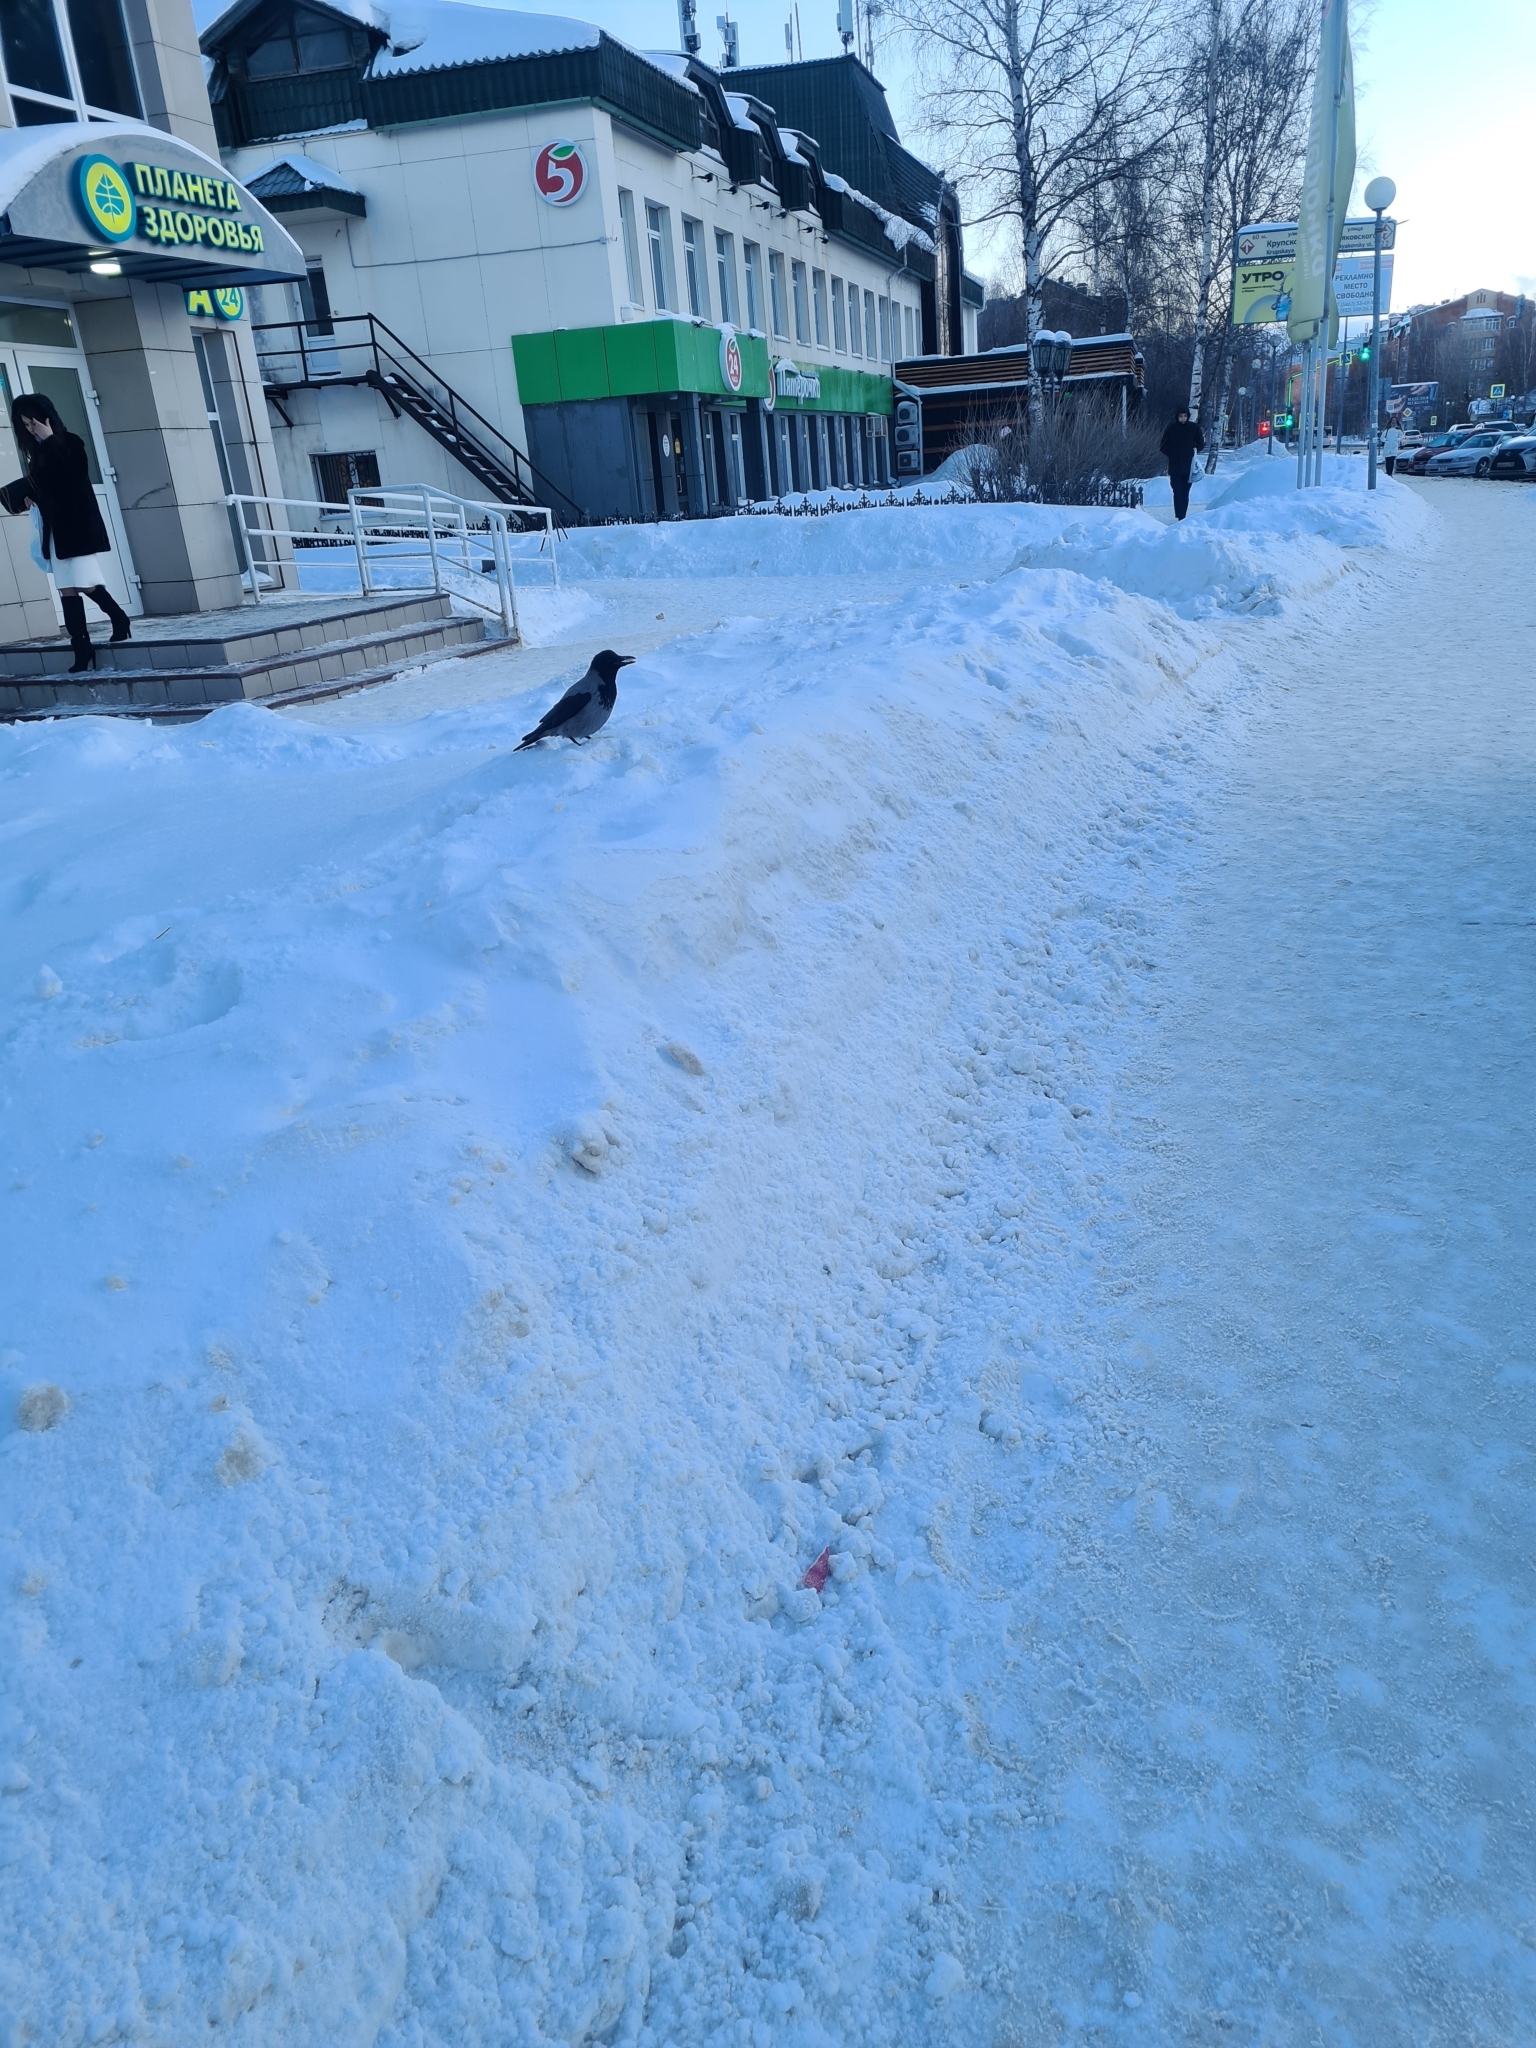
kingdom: Animalia
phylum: Chordata
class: Aves
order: Passeriformes
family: Corvidae
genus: Corvus
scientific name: Corvus cornix
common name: Hooded crow
